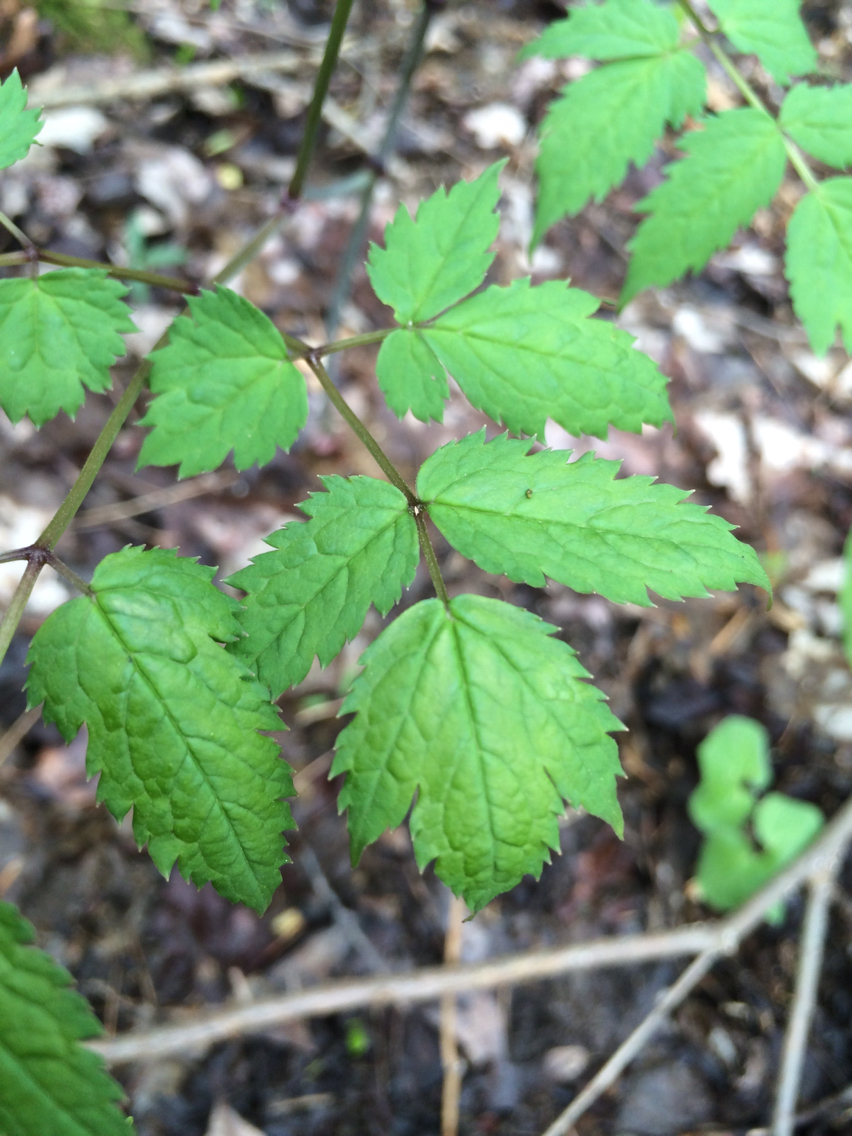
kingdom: Plantae
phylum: Tracheophyta
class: Magnoliopsida
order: Ranunculales
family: Ranunculaceae
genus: Actaea
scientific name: Actaea pachypoda
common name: Doll's-eyes
